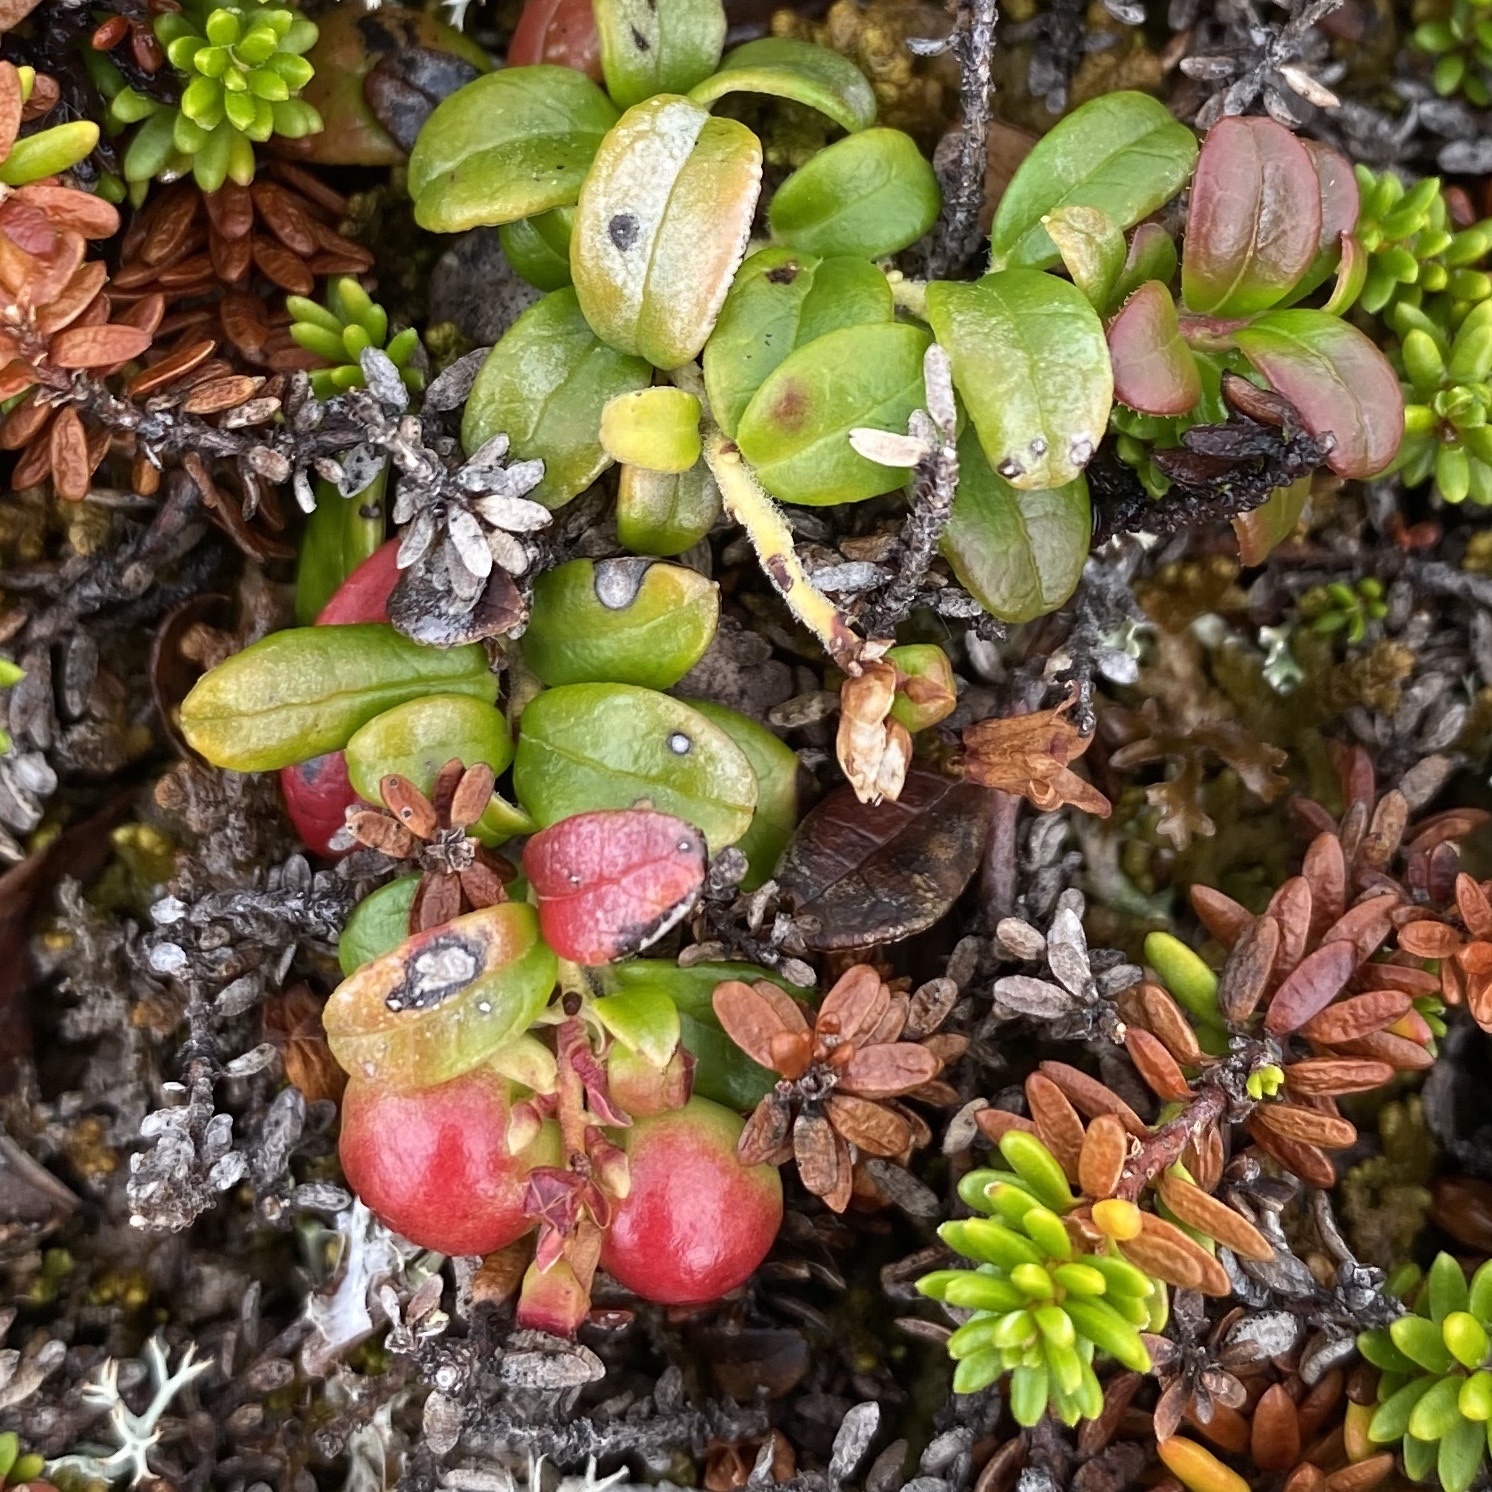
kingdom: Plantae
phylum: Tracheophyta
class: Magnoliopsida
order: Ericales
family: Ericaceae
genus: Vaccinium
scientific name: Vaccinium vitis-idaea
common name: Cowberry
